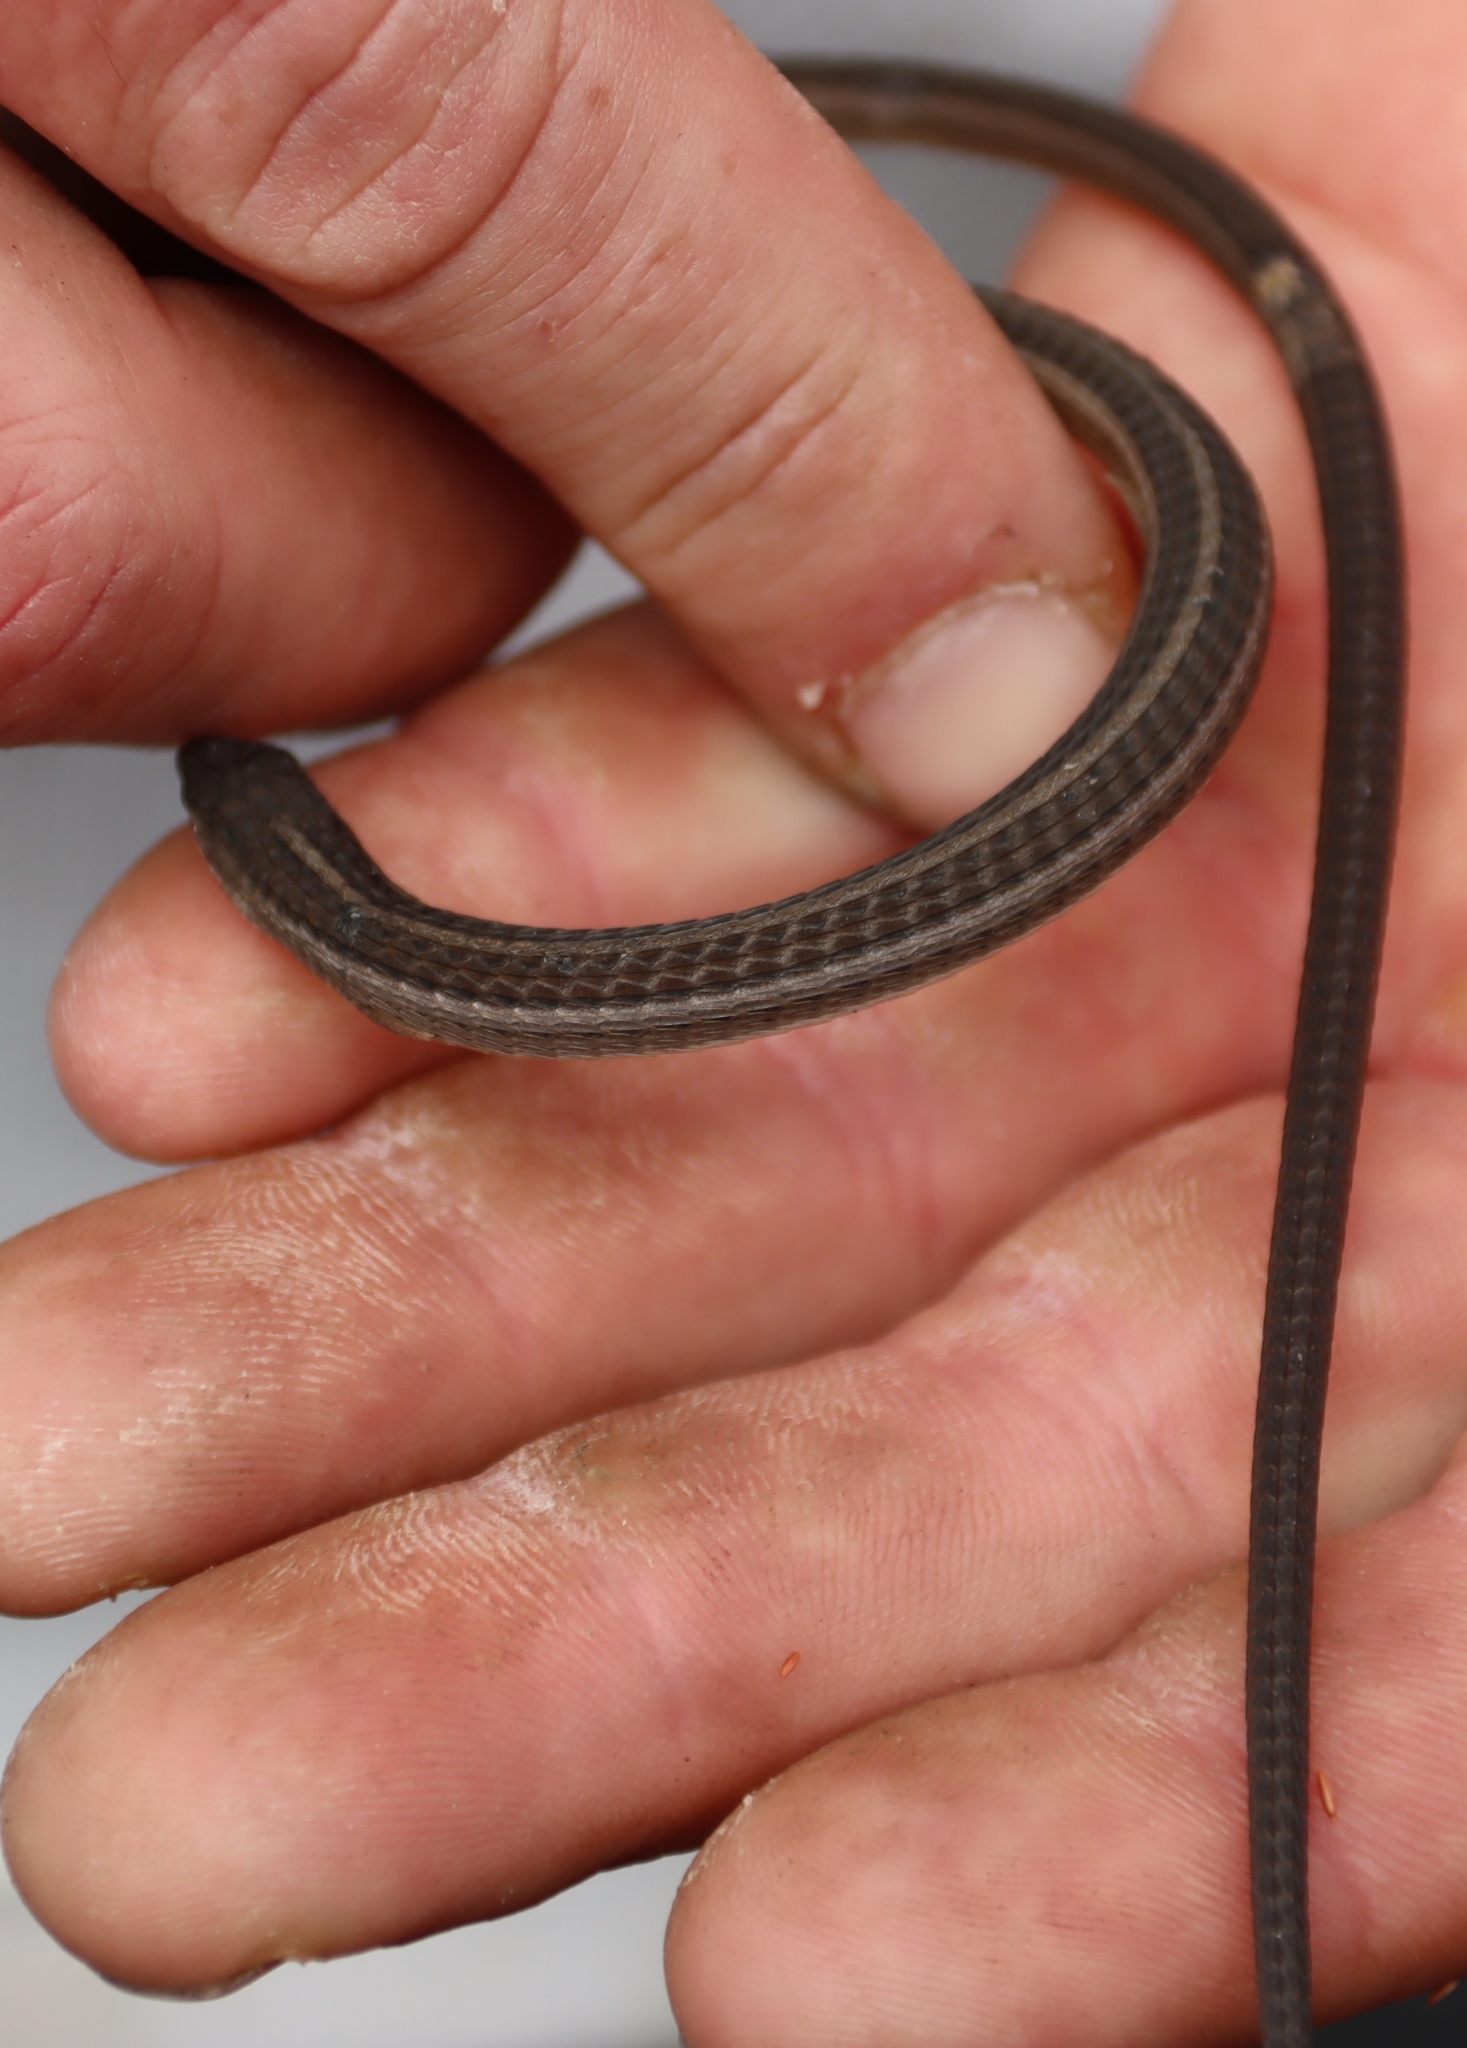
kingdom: Animalia
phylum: Chordata
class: Squamata
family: Cordylidae
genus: Chamaesaura
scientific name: Chamaesaura anguina
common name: Cape snake lizard
